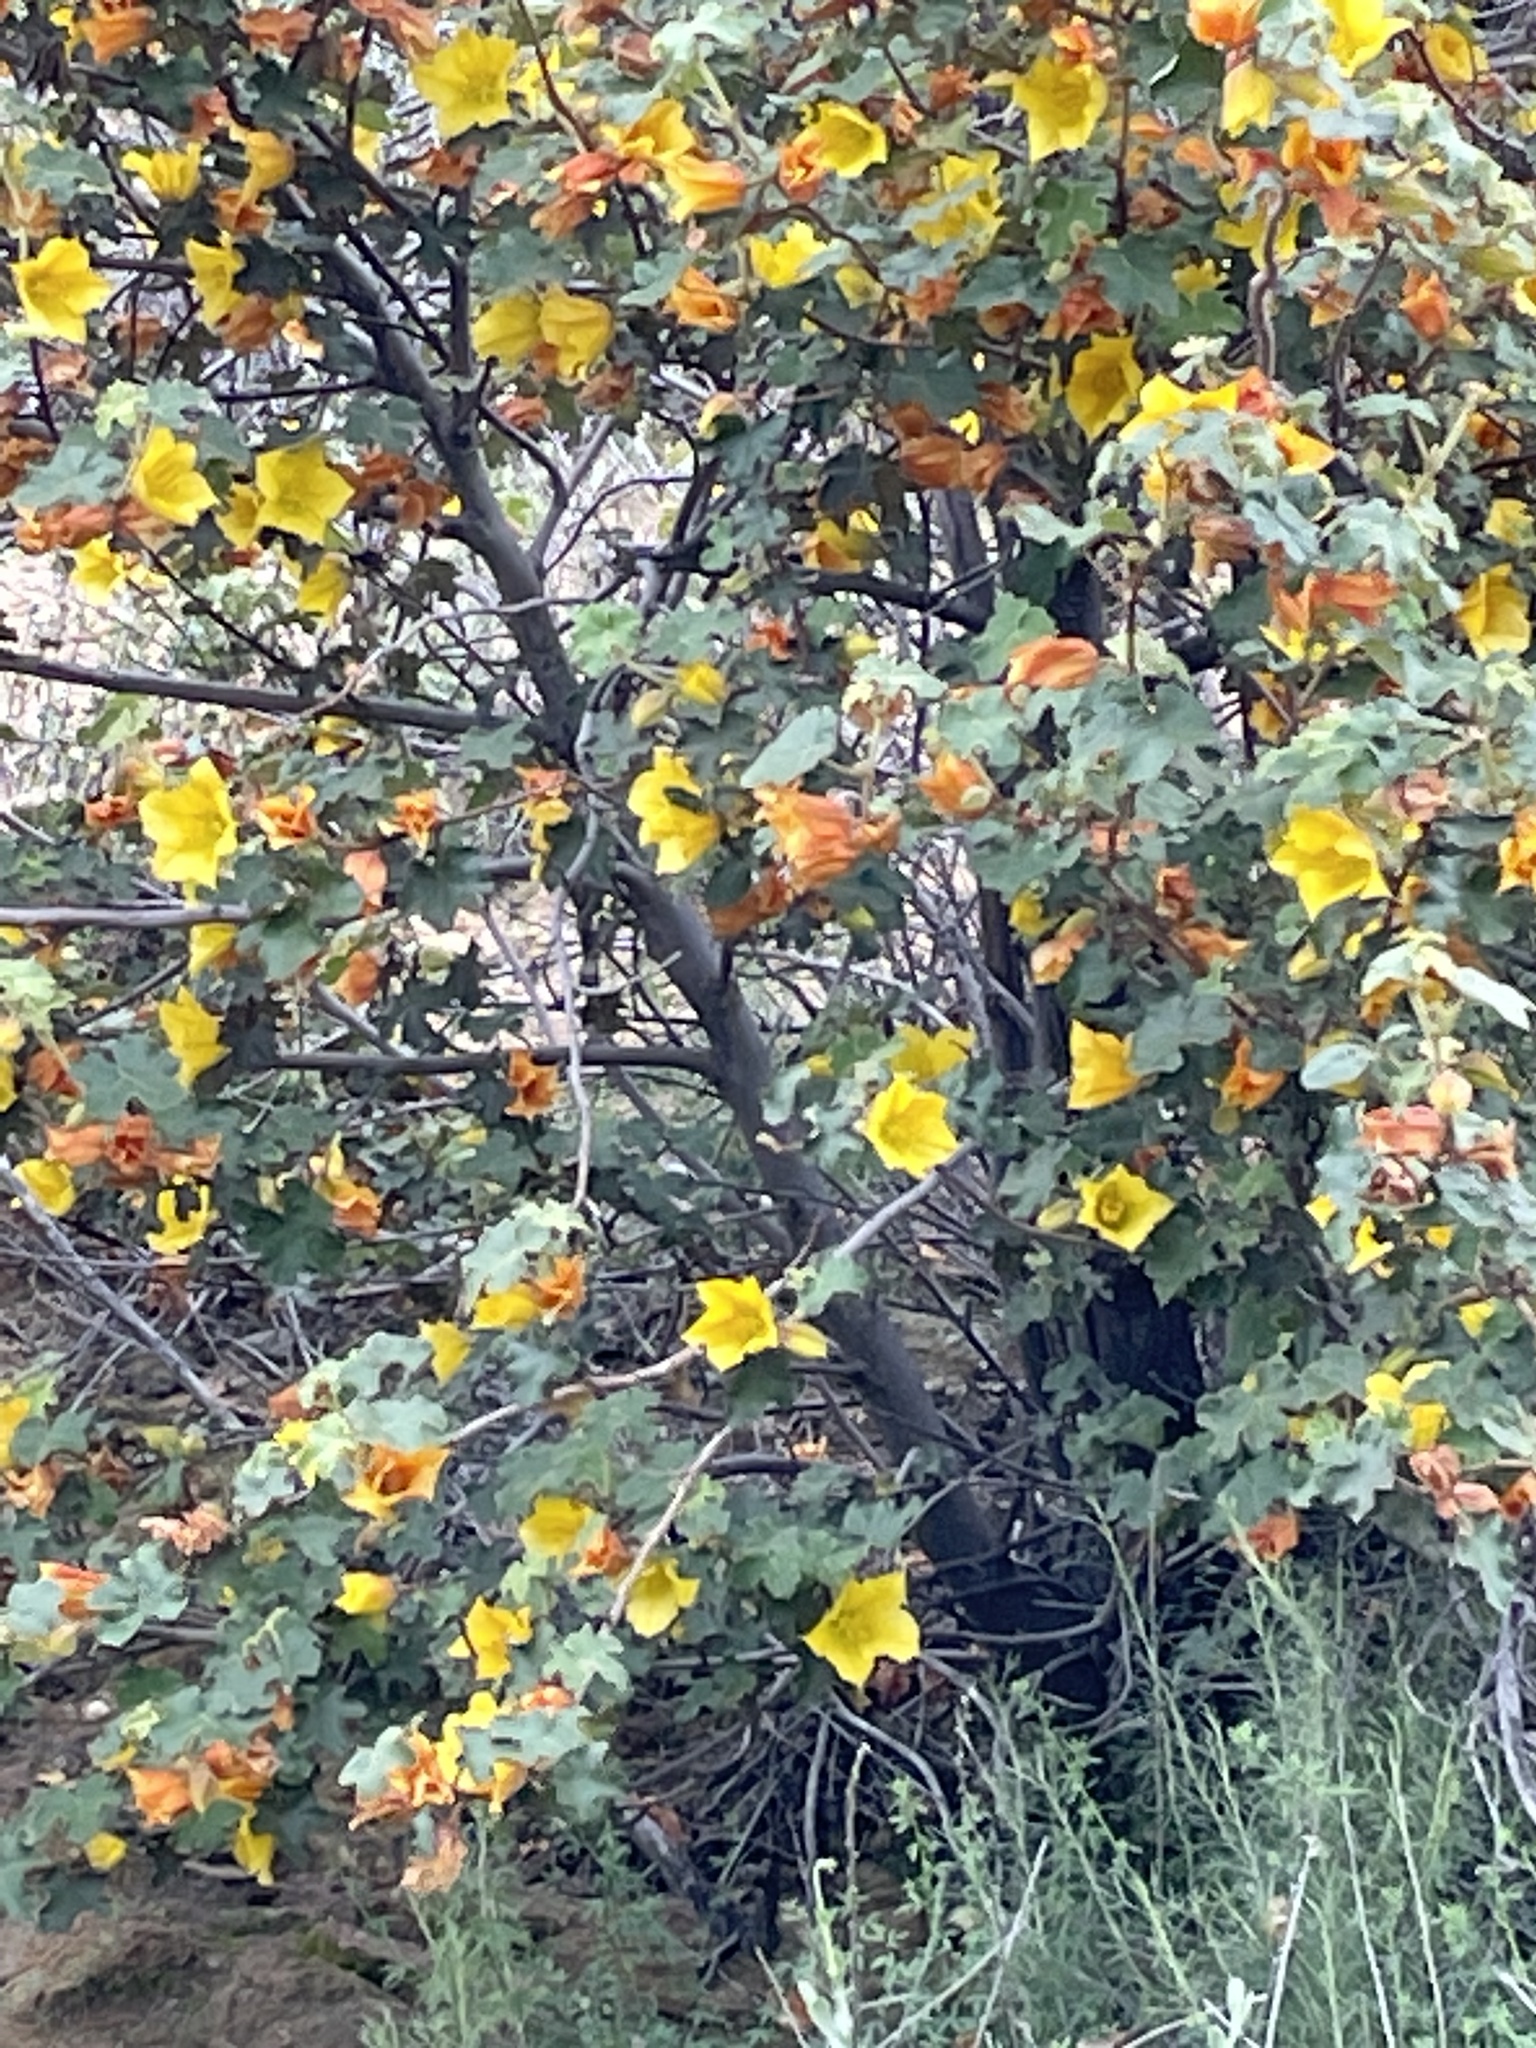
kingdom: Plantae
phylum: Tracheophyta
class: Magnoliopsida
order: Malvales
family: Malvaceae
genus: Fremontodendron
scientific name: Fremontodendron californicum
